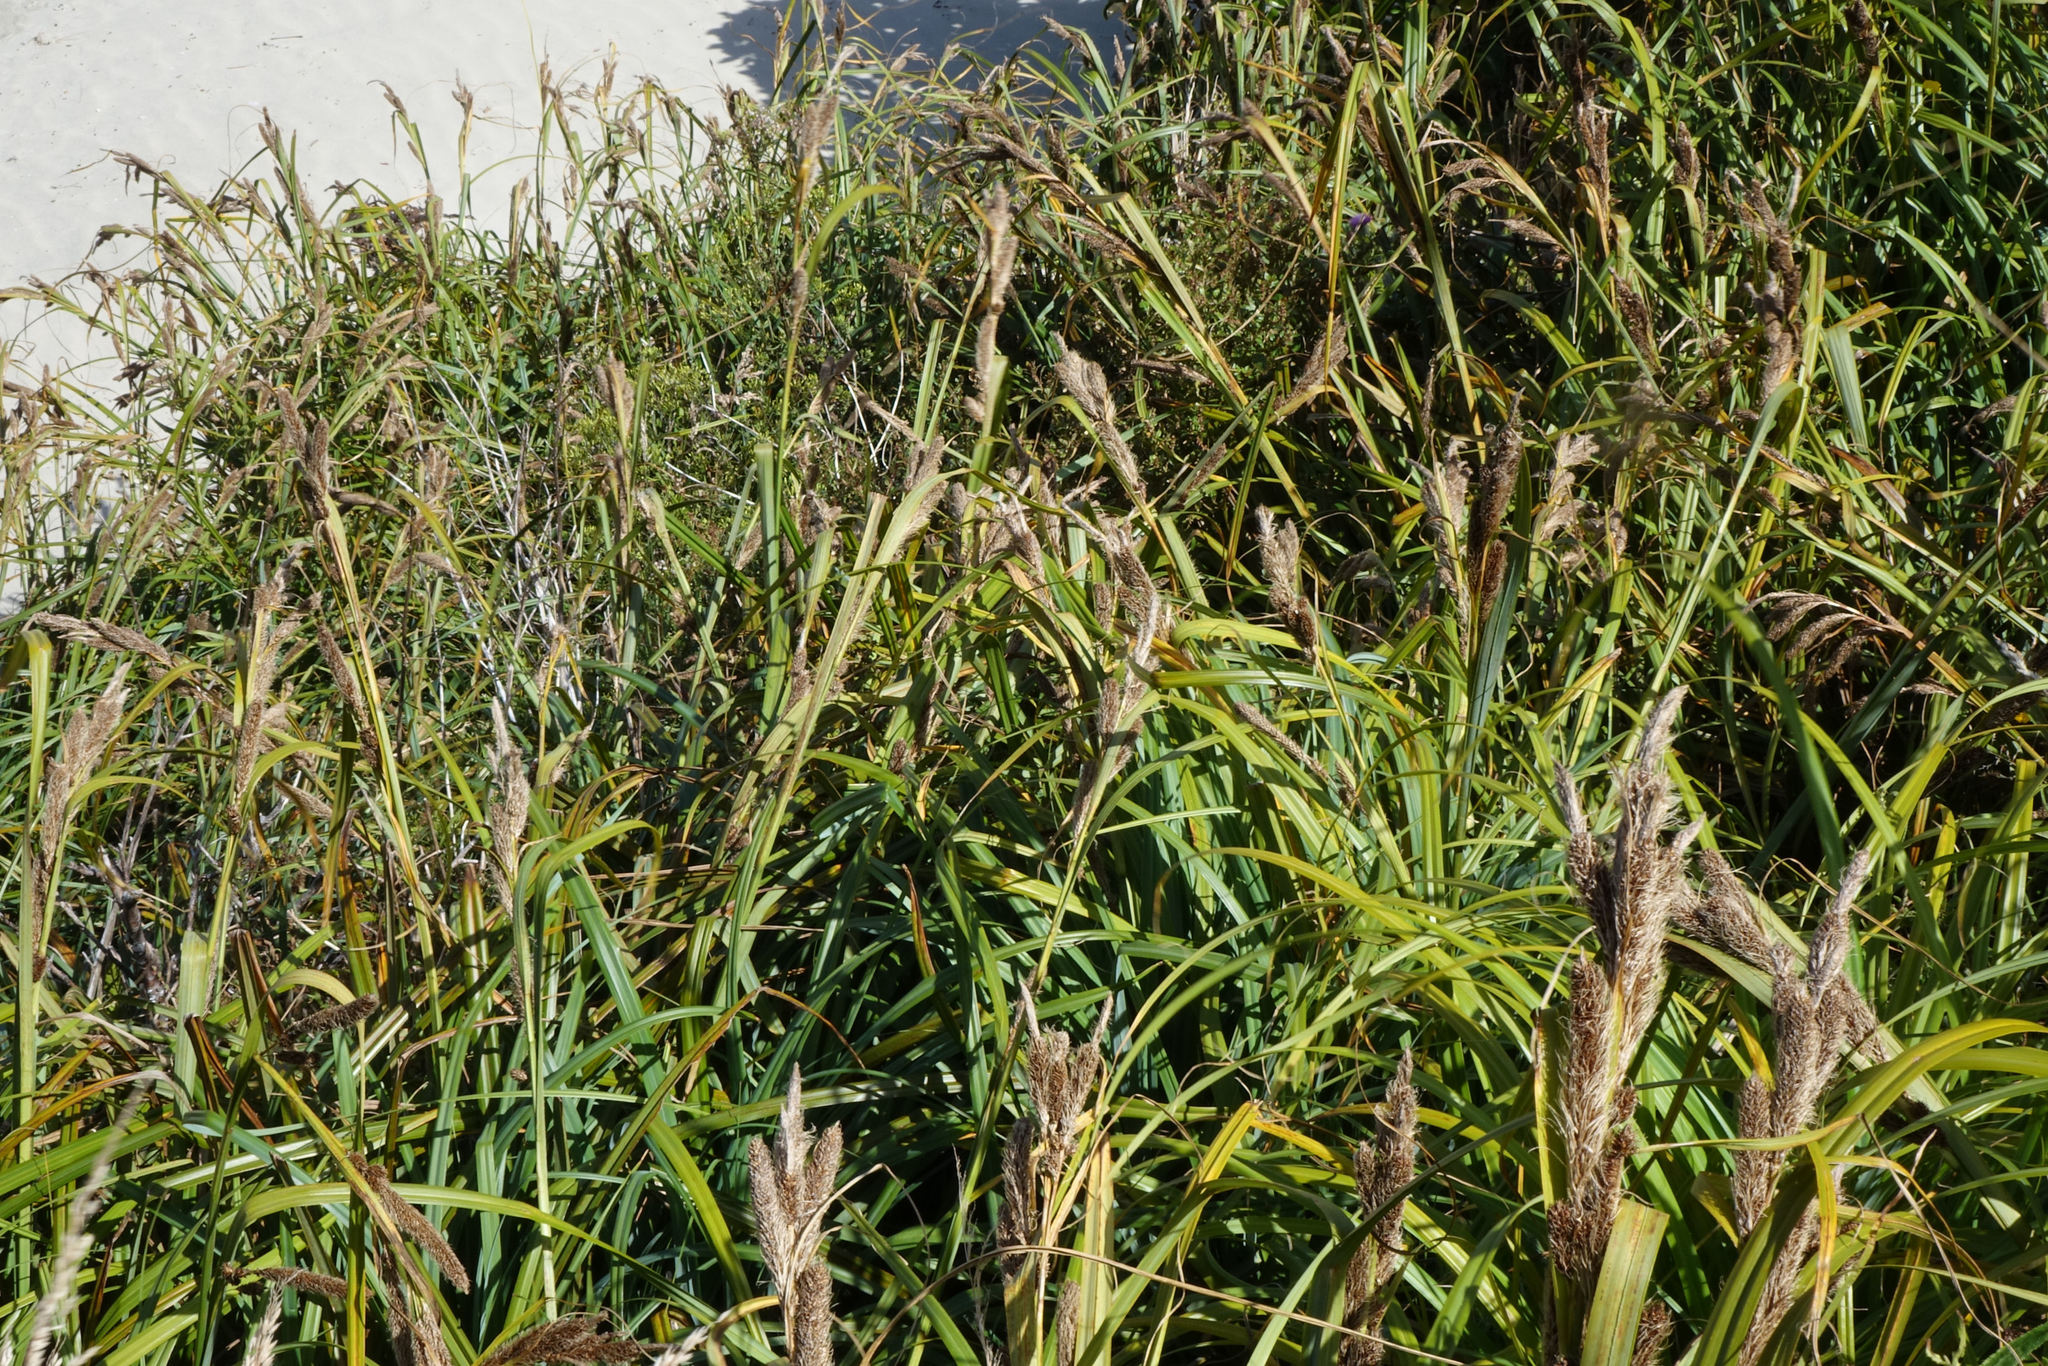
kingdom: Plantae
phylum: Tracheophyta
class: Liliopsida
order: Poales
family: Cyperaceae
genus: Carex
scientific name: Carex trifida
